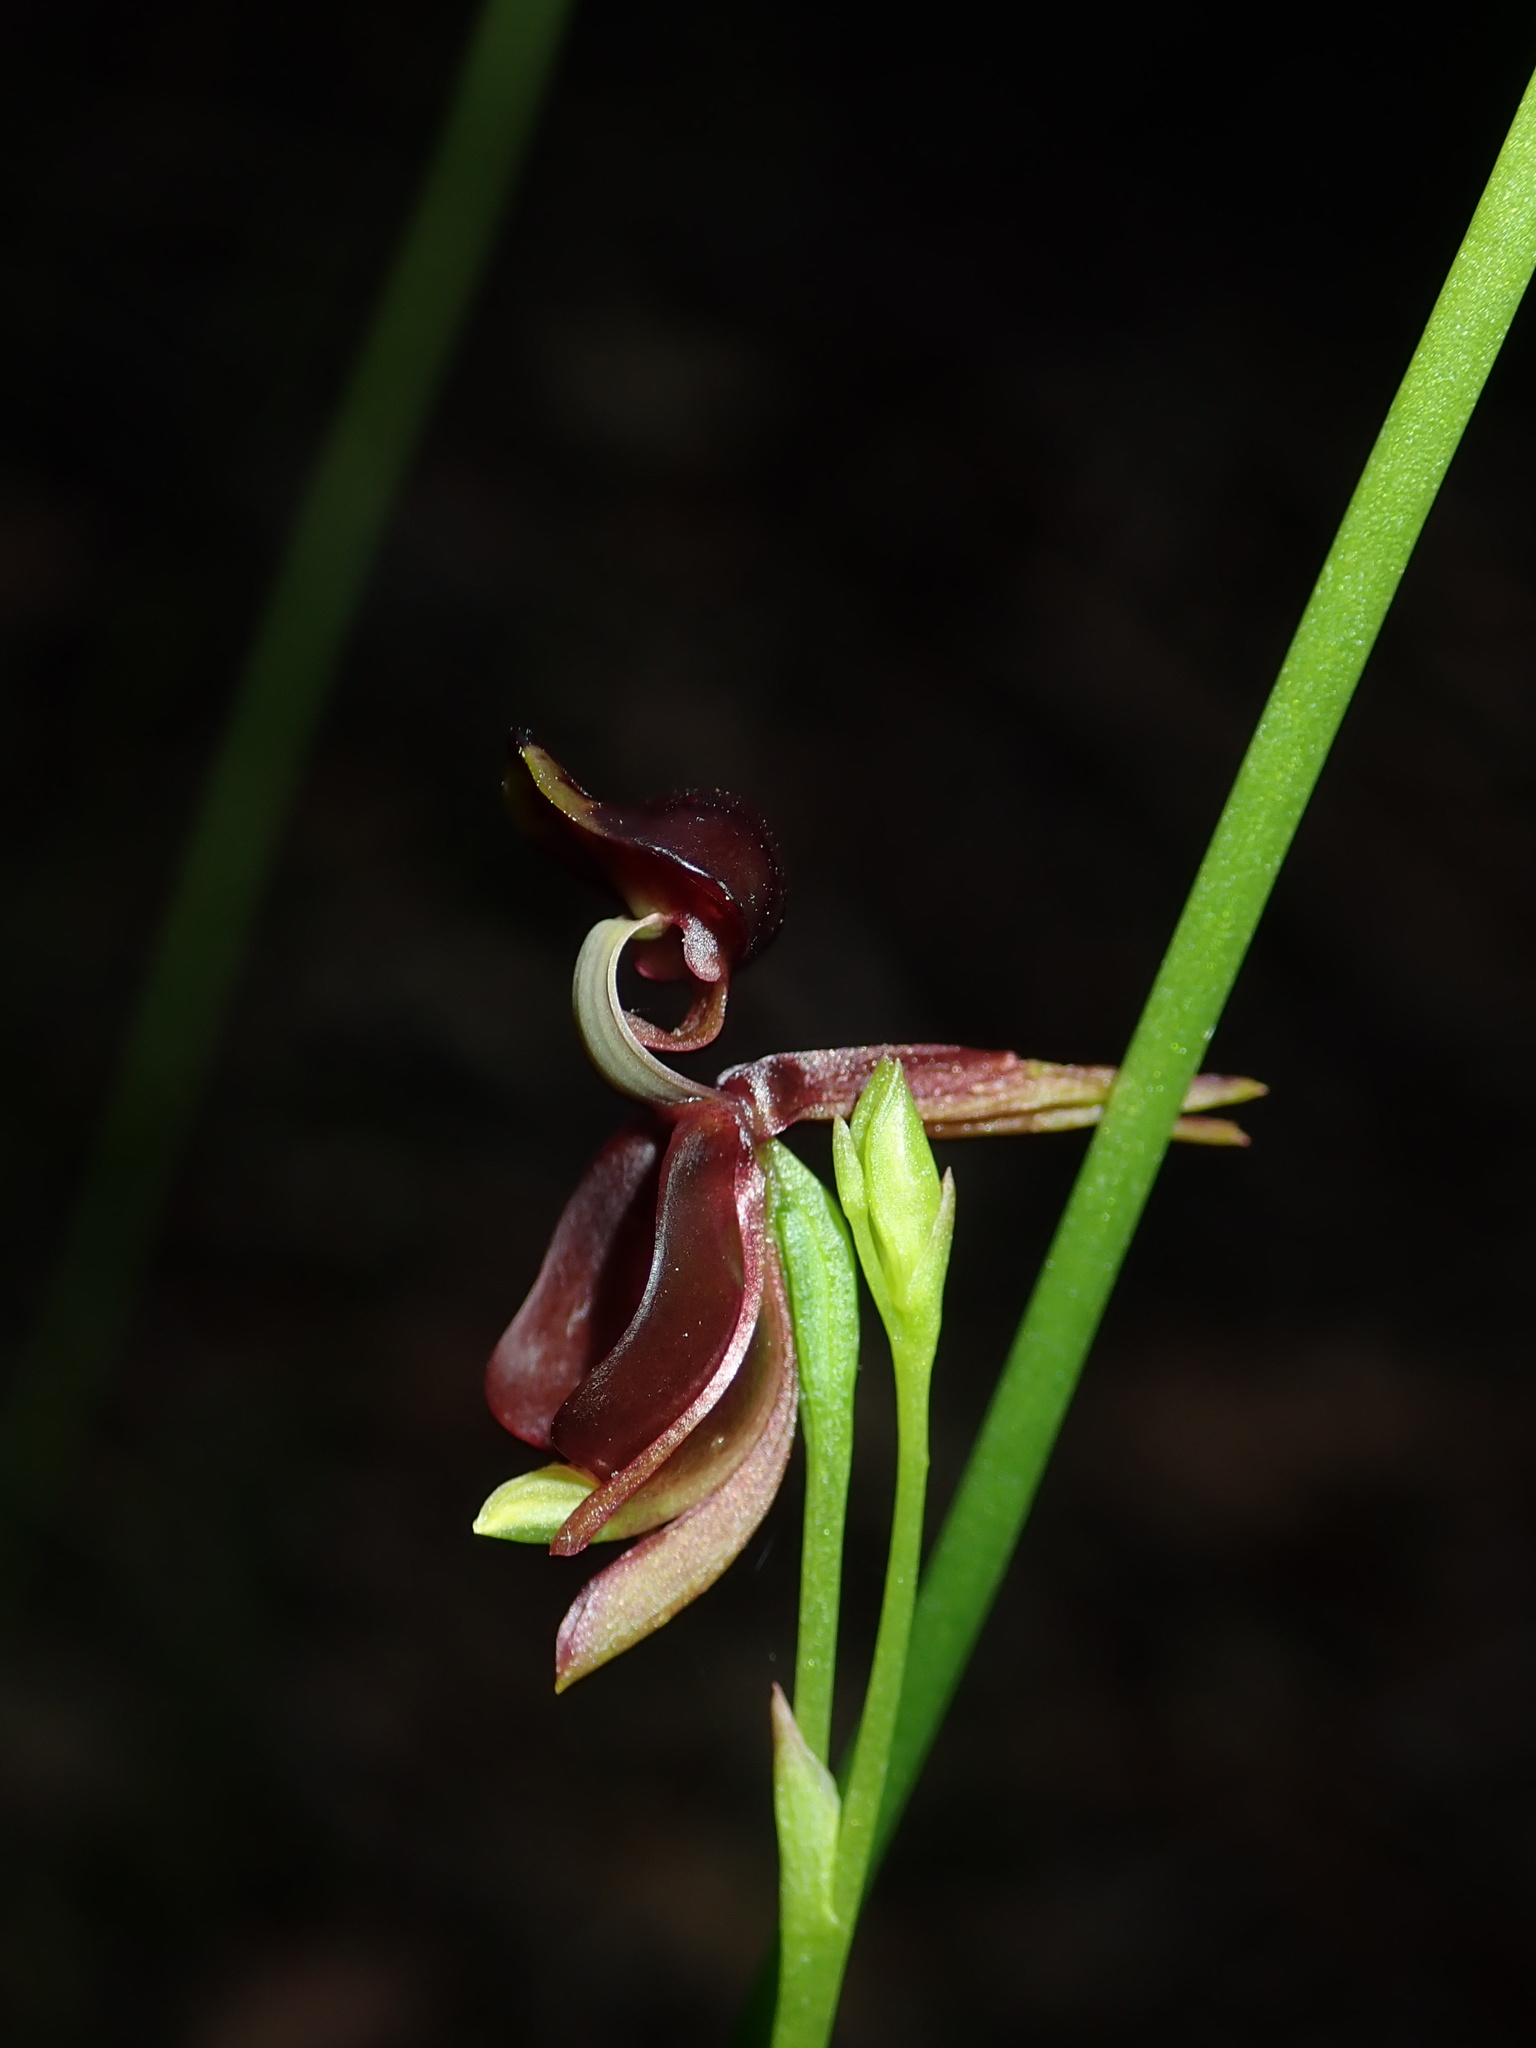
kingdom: Plantae
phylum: Tracheophyta
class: Liliopsida
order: Asparagales
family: Orchidaceae
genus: Caleana
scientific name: Caleana major
